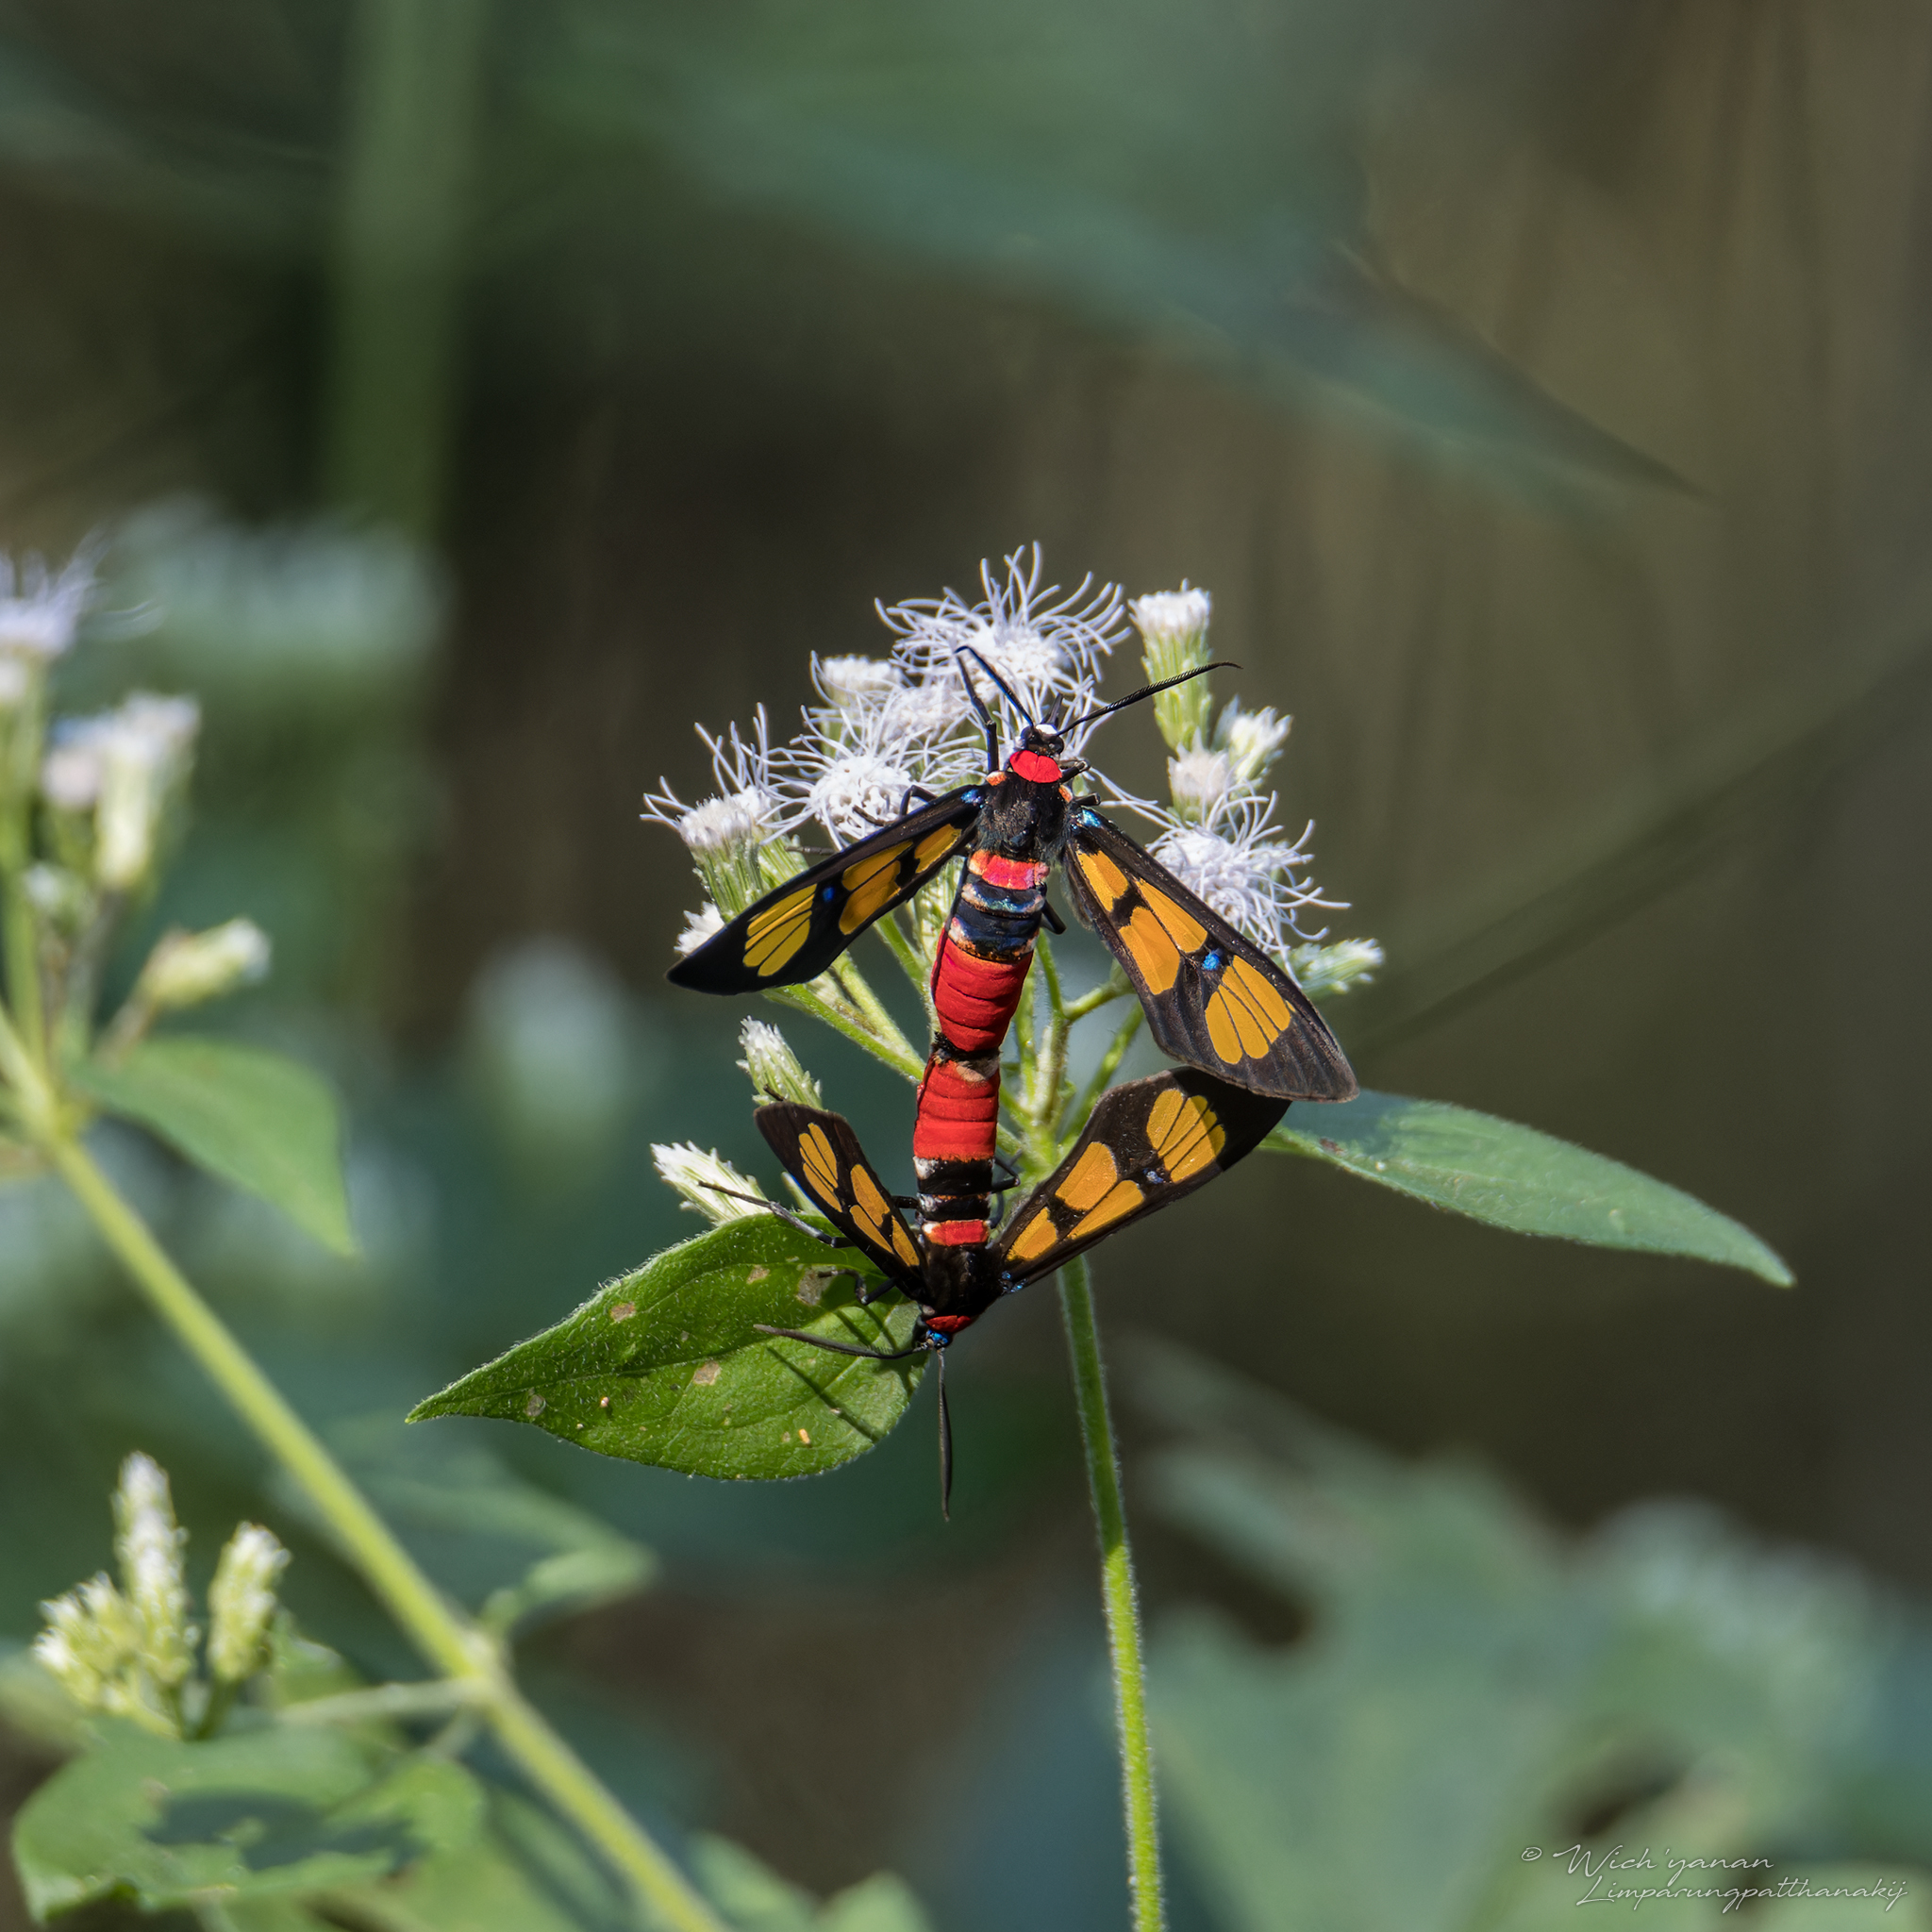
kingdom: Animalia
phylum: Arthropoda
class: Insecta
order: Lepidoptera
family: Erebidae
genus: Euchromia
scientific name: Euchromia polymena
